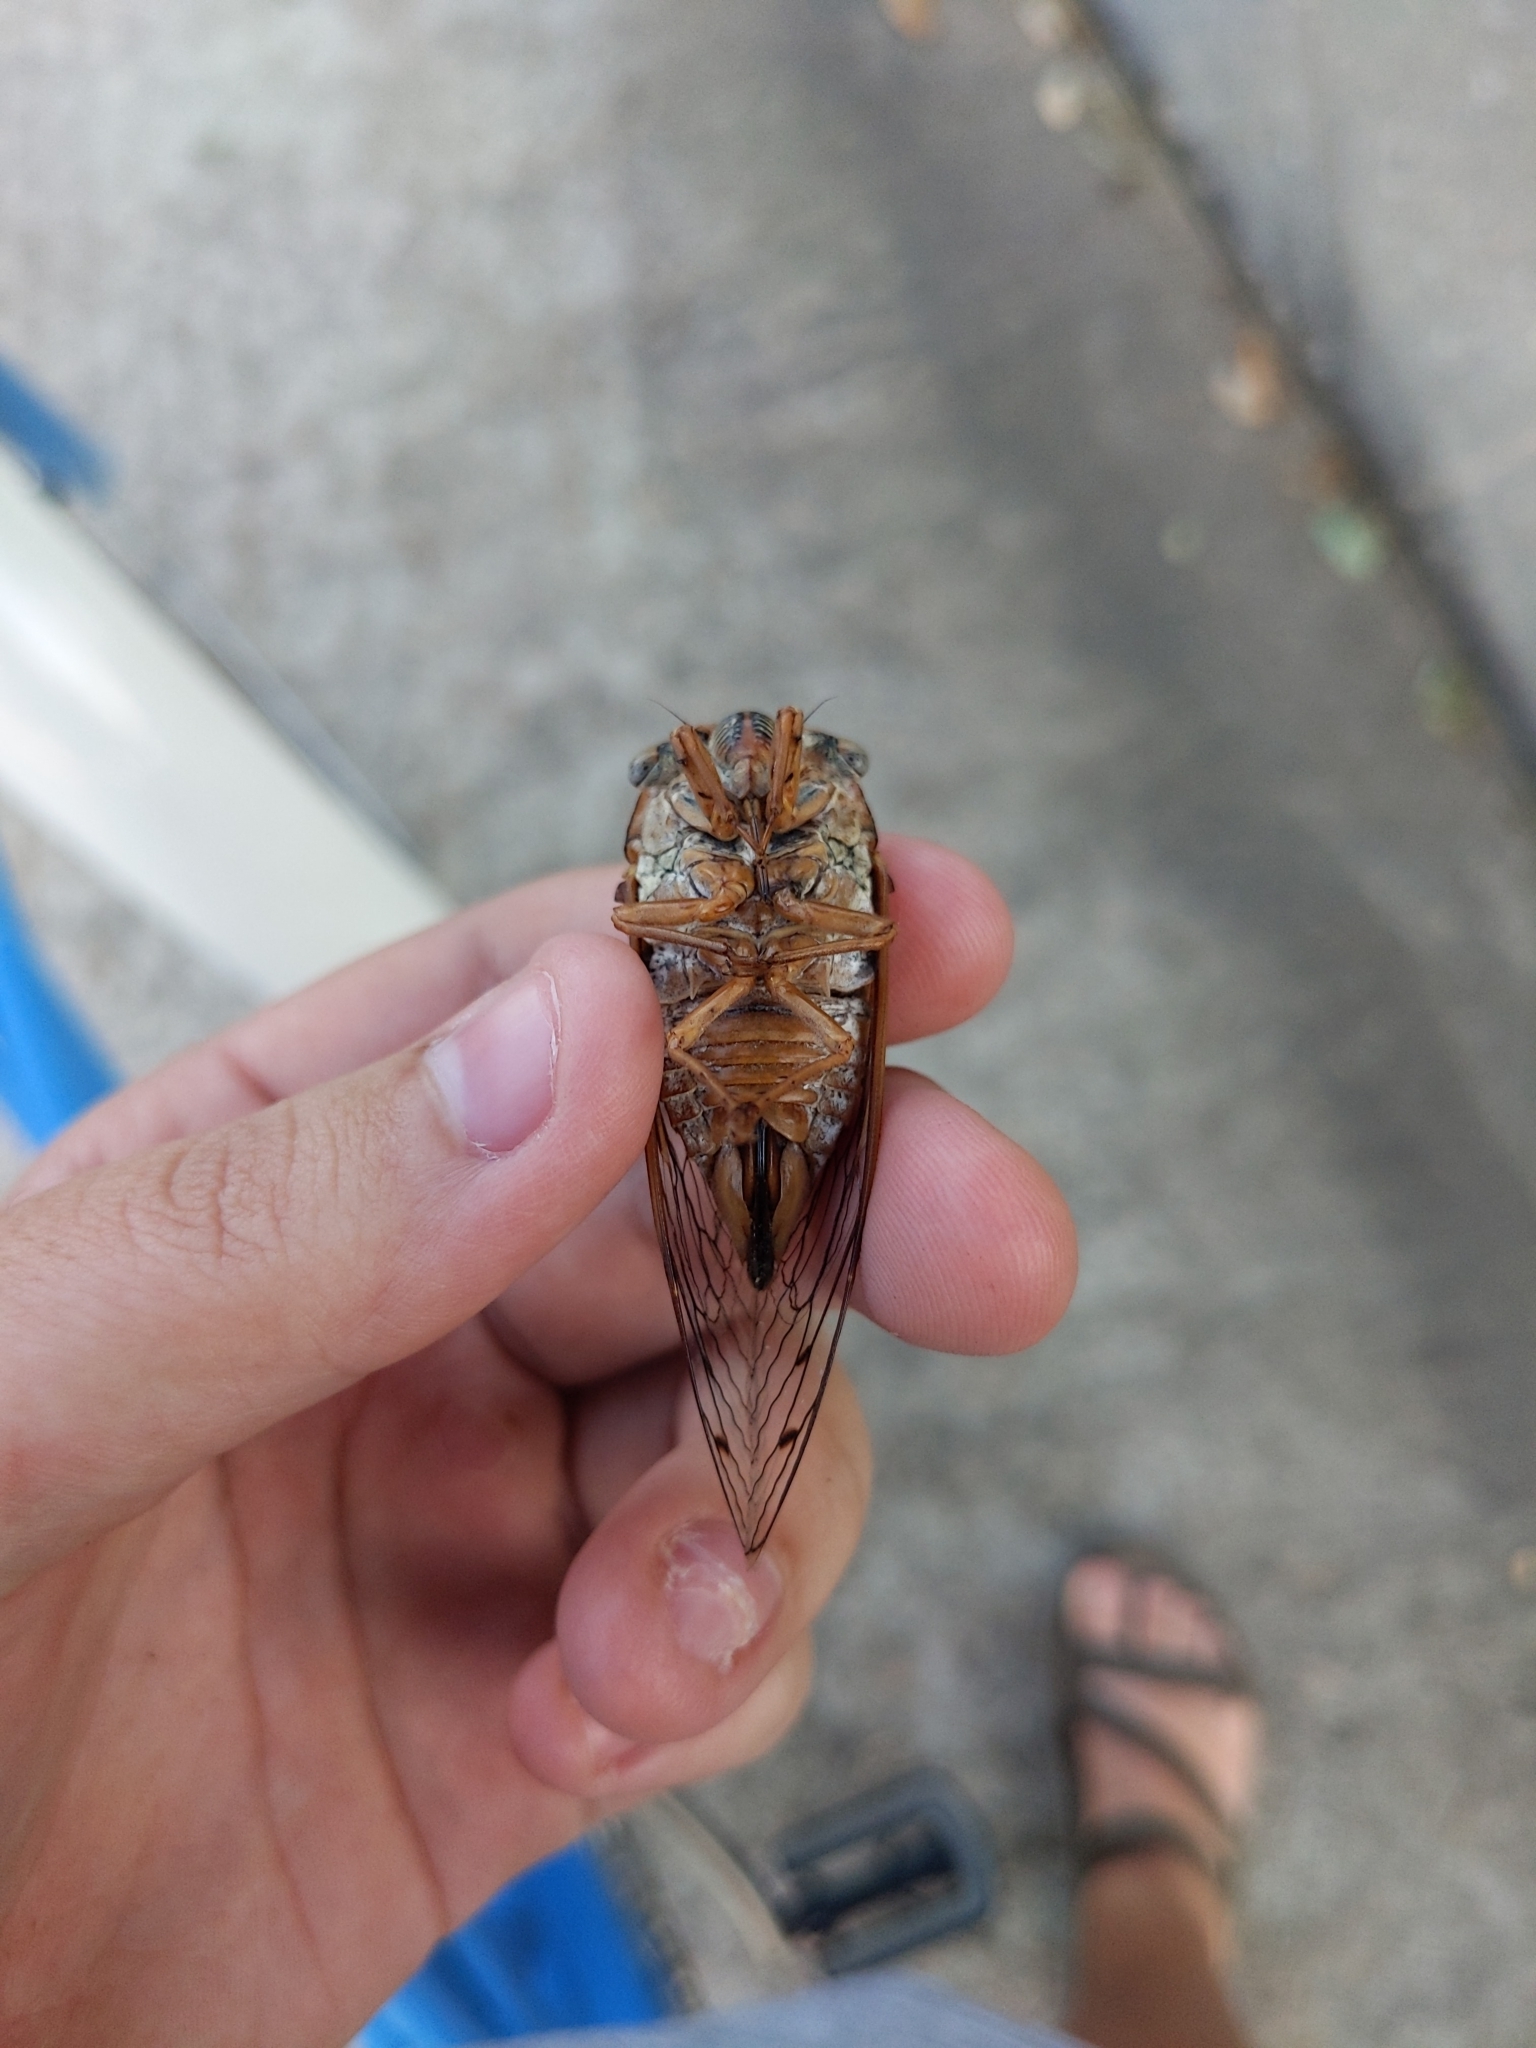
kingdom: Animalia
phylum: Arthropoda
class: Insecta
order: Hemiptera
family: Cicadidae
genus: Megatibicen
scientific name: Megatibicen resh
